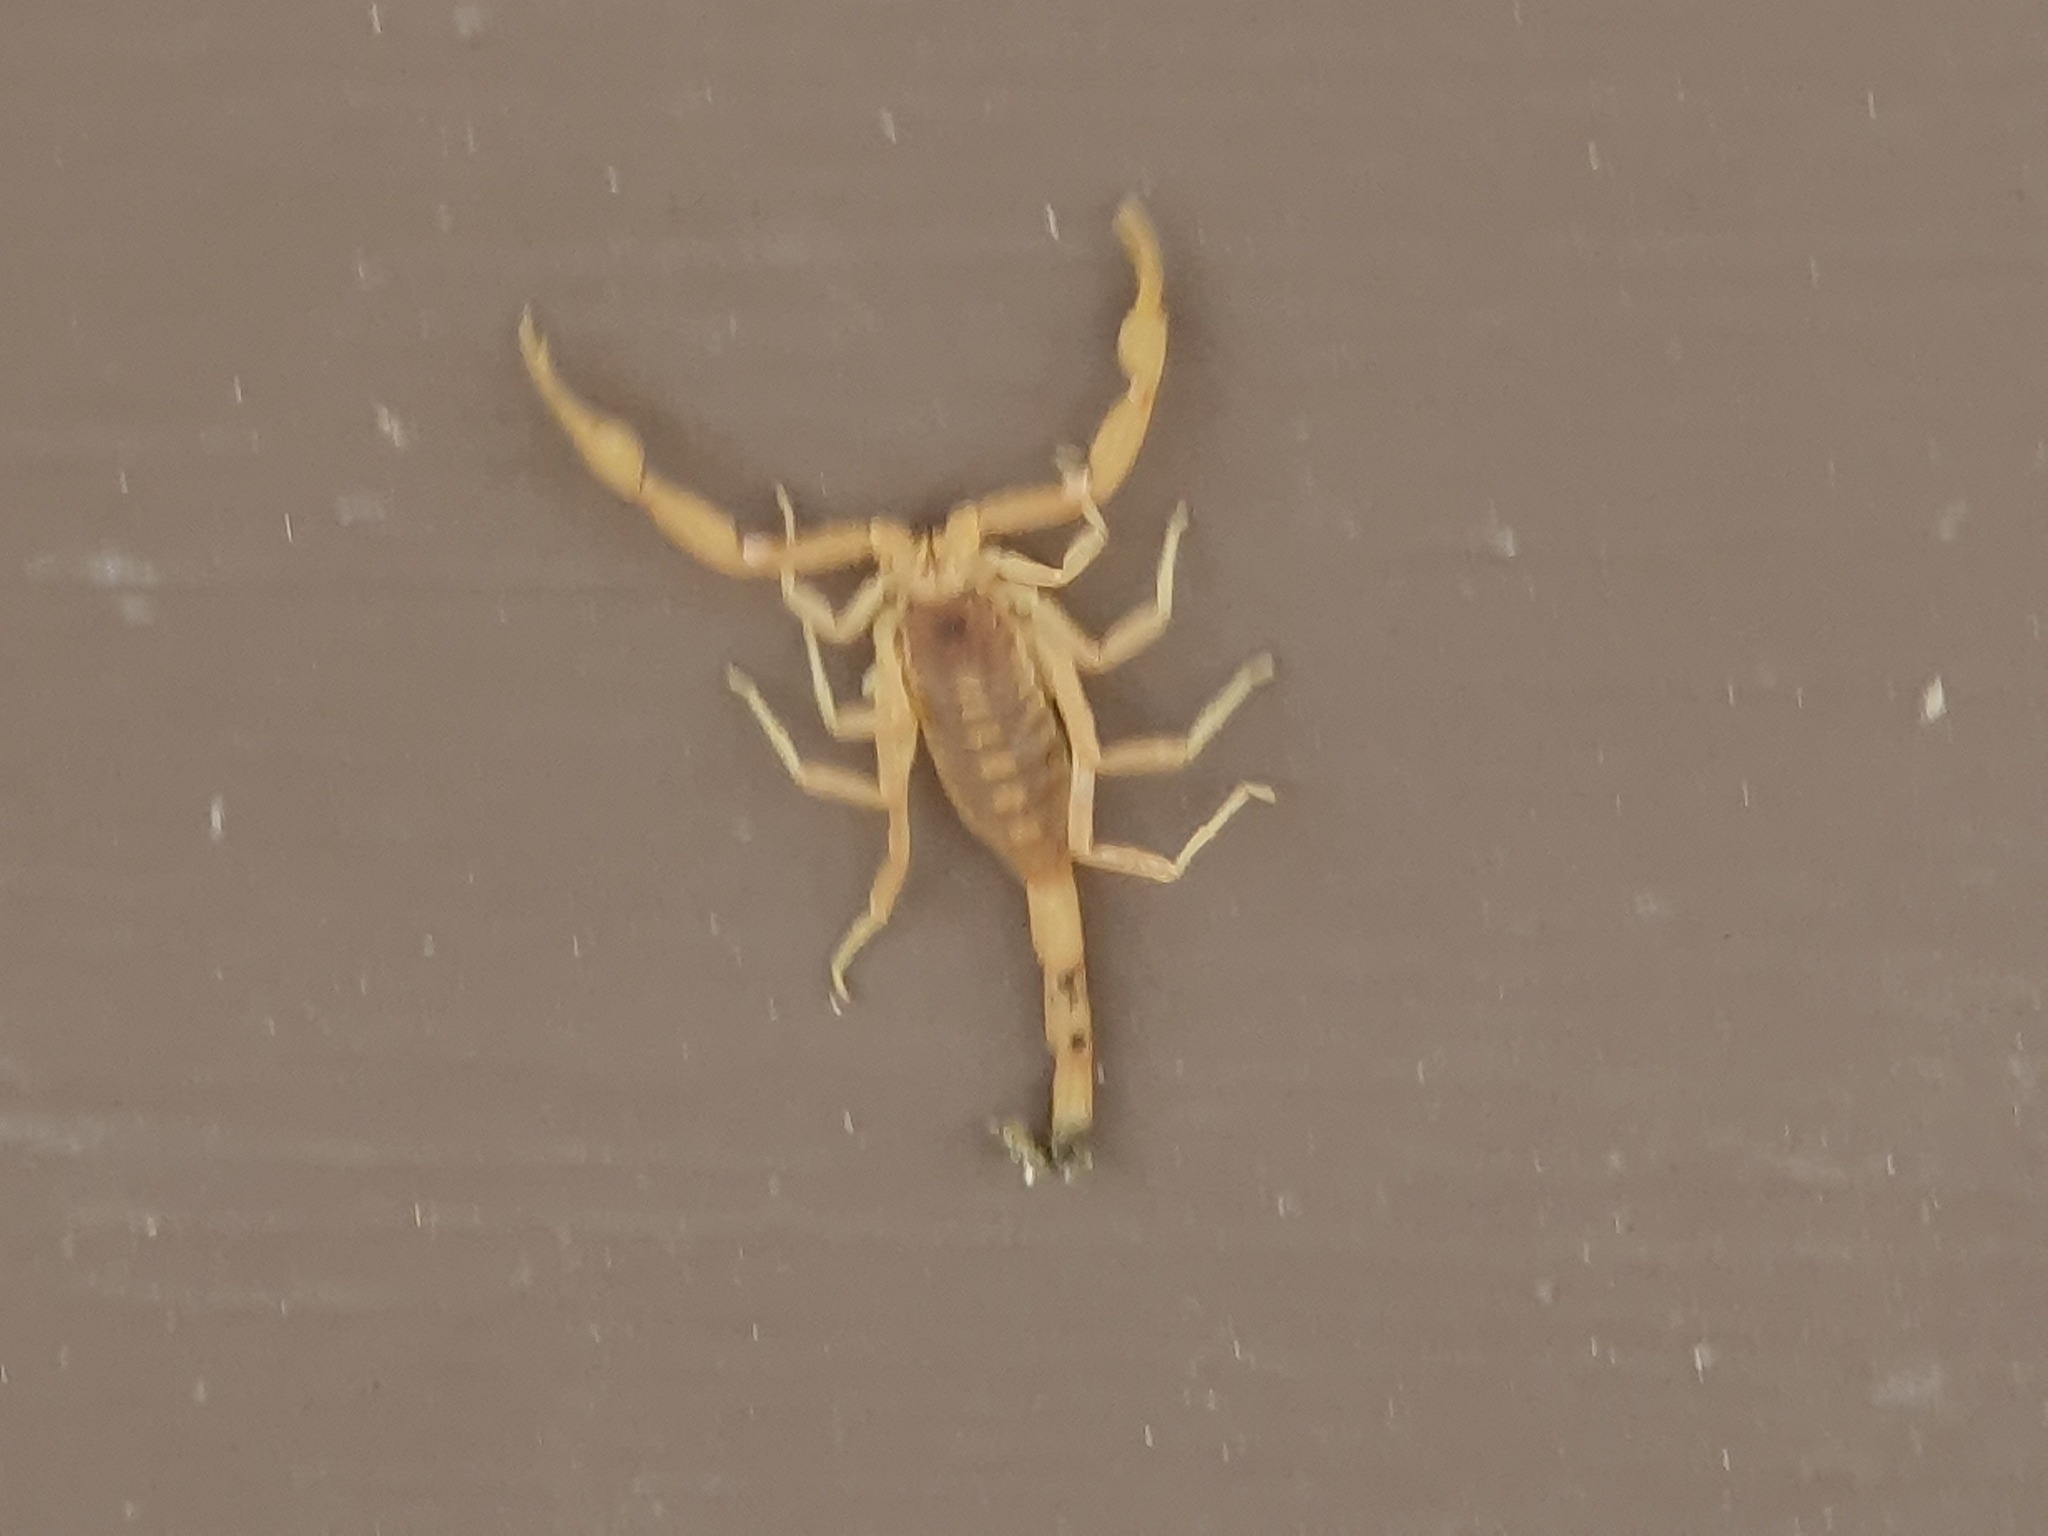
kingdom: Animalia
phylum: Arthropoda
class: Arachnida
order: Scorpiones
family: Buthidae
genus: Centruroides
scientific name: Centruroides vittatus
